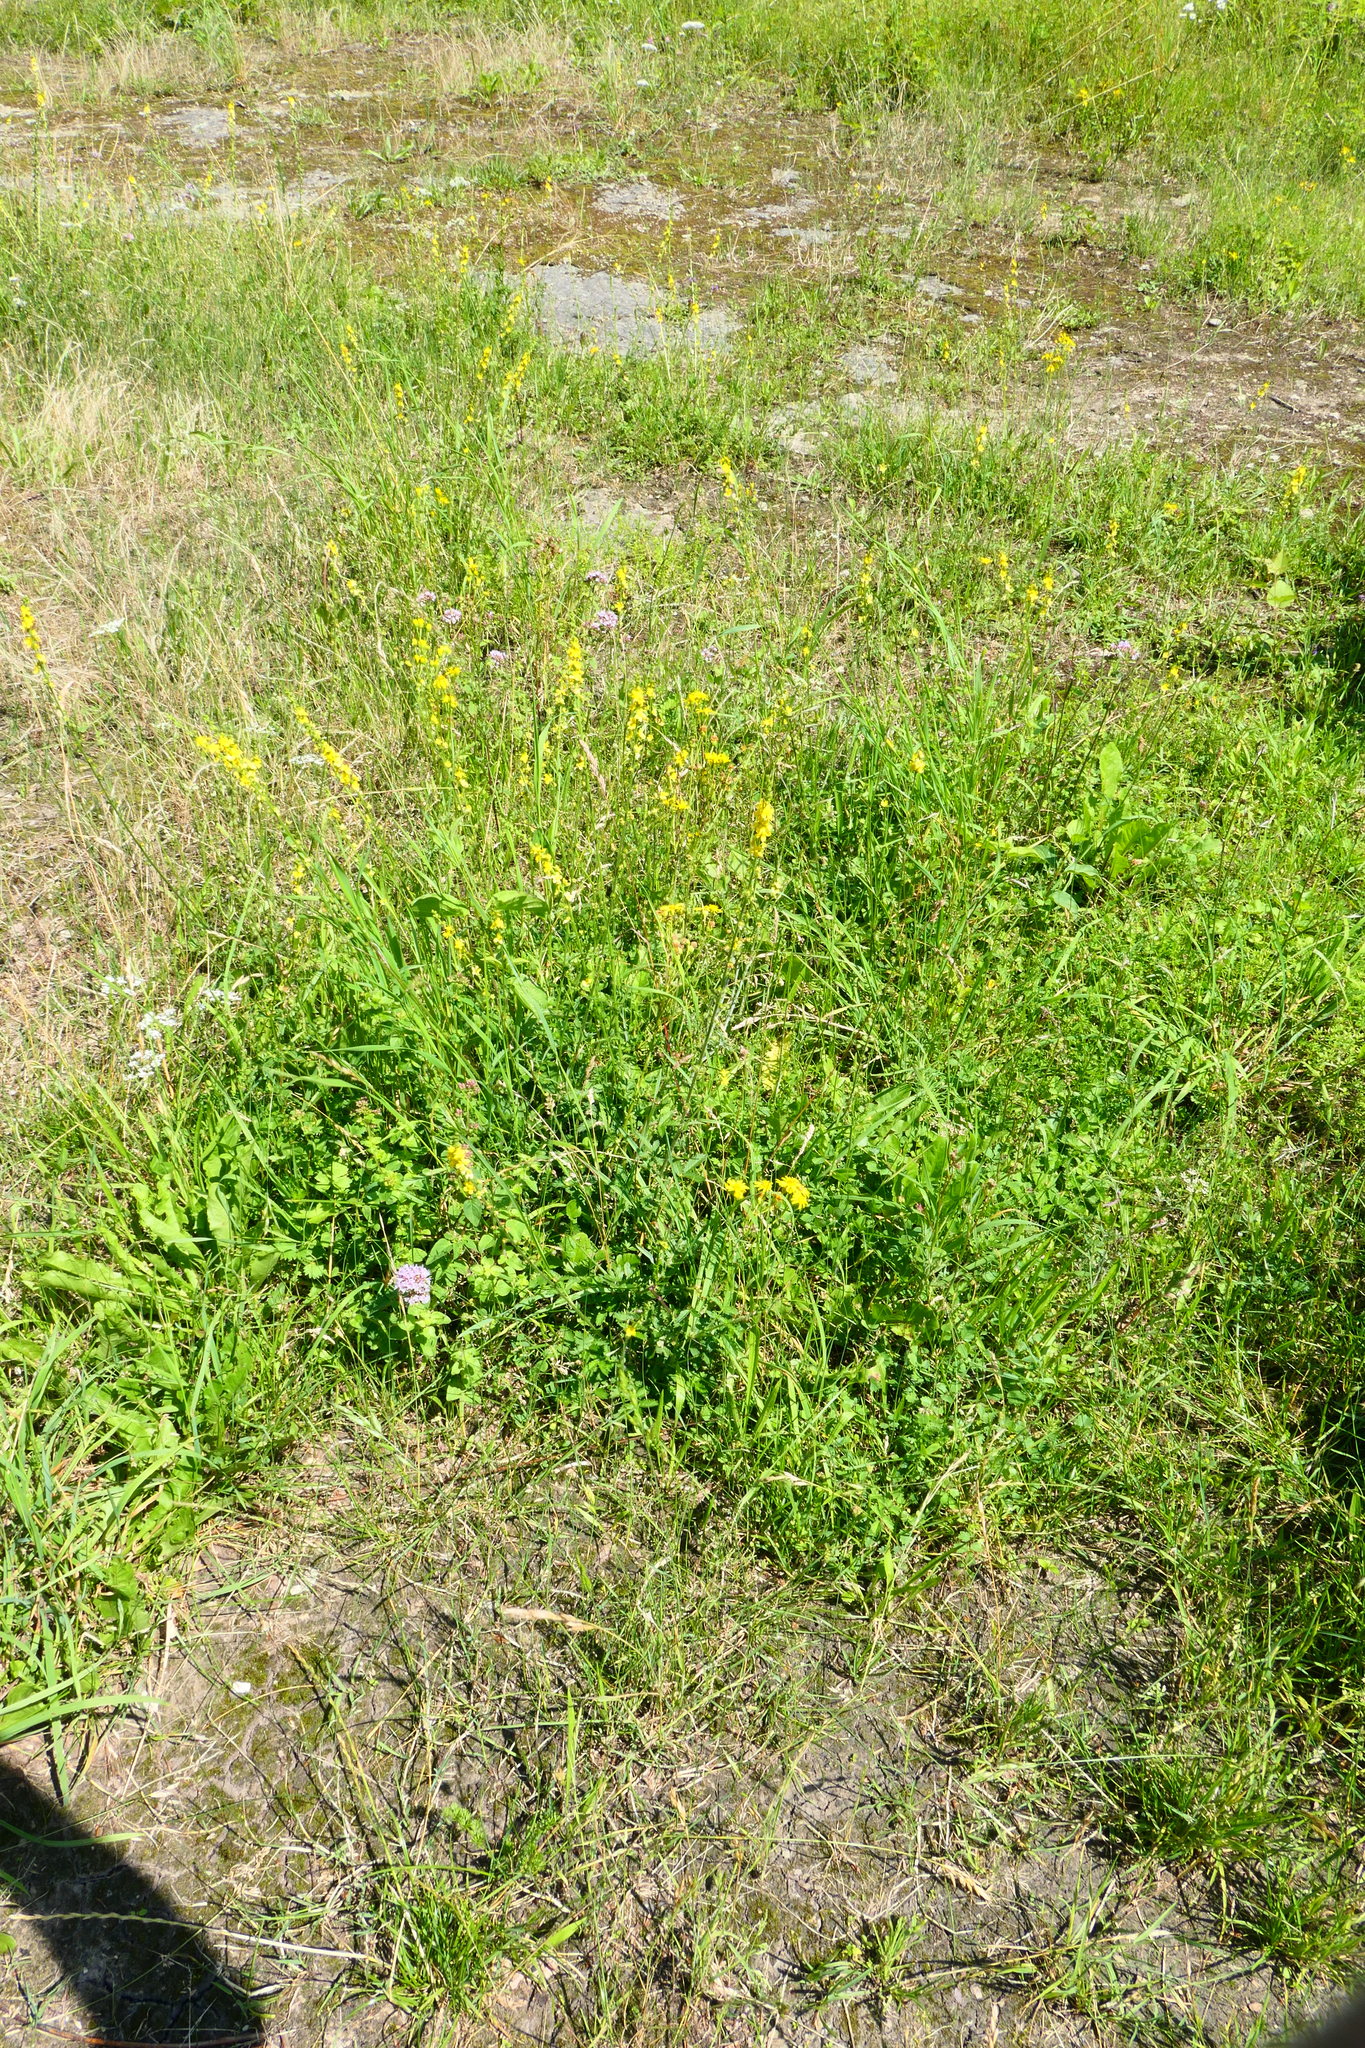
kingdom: Plantae
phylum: Tracheophyta
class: Magnoliopsida
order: Rosales
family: Rosaceae
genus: Agrimonia
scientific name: Agrimonia eupatoria
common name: Agrimony
